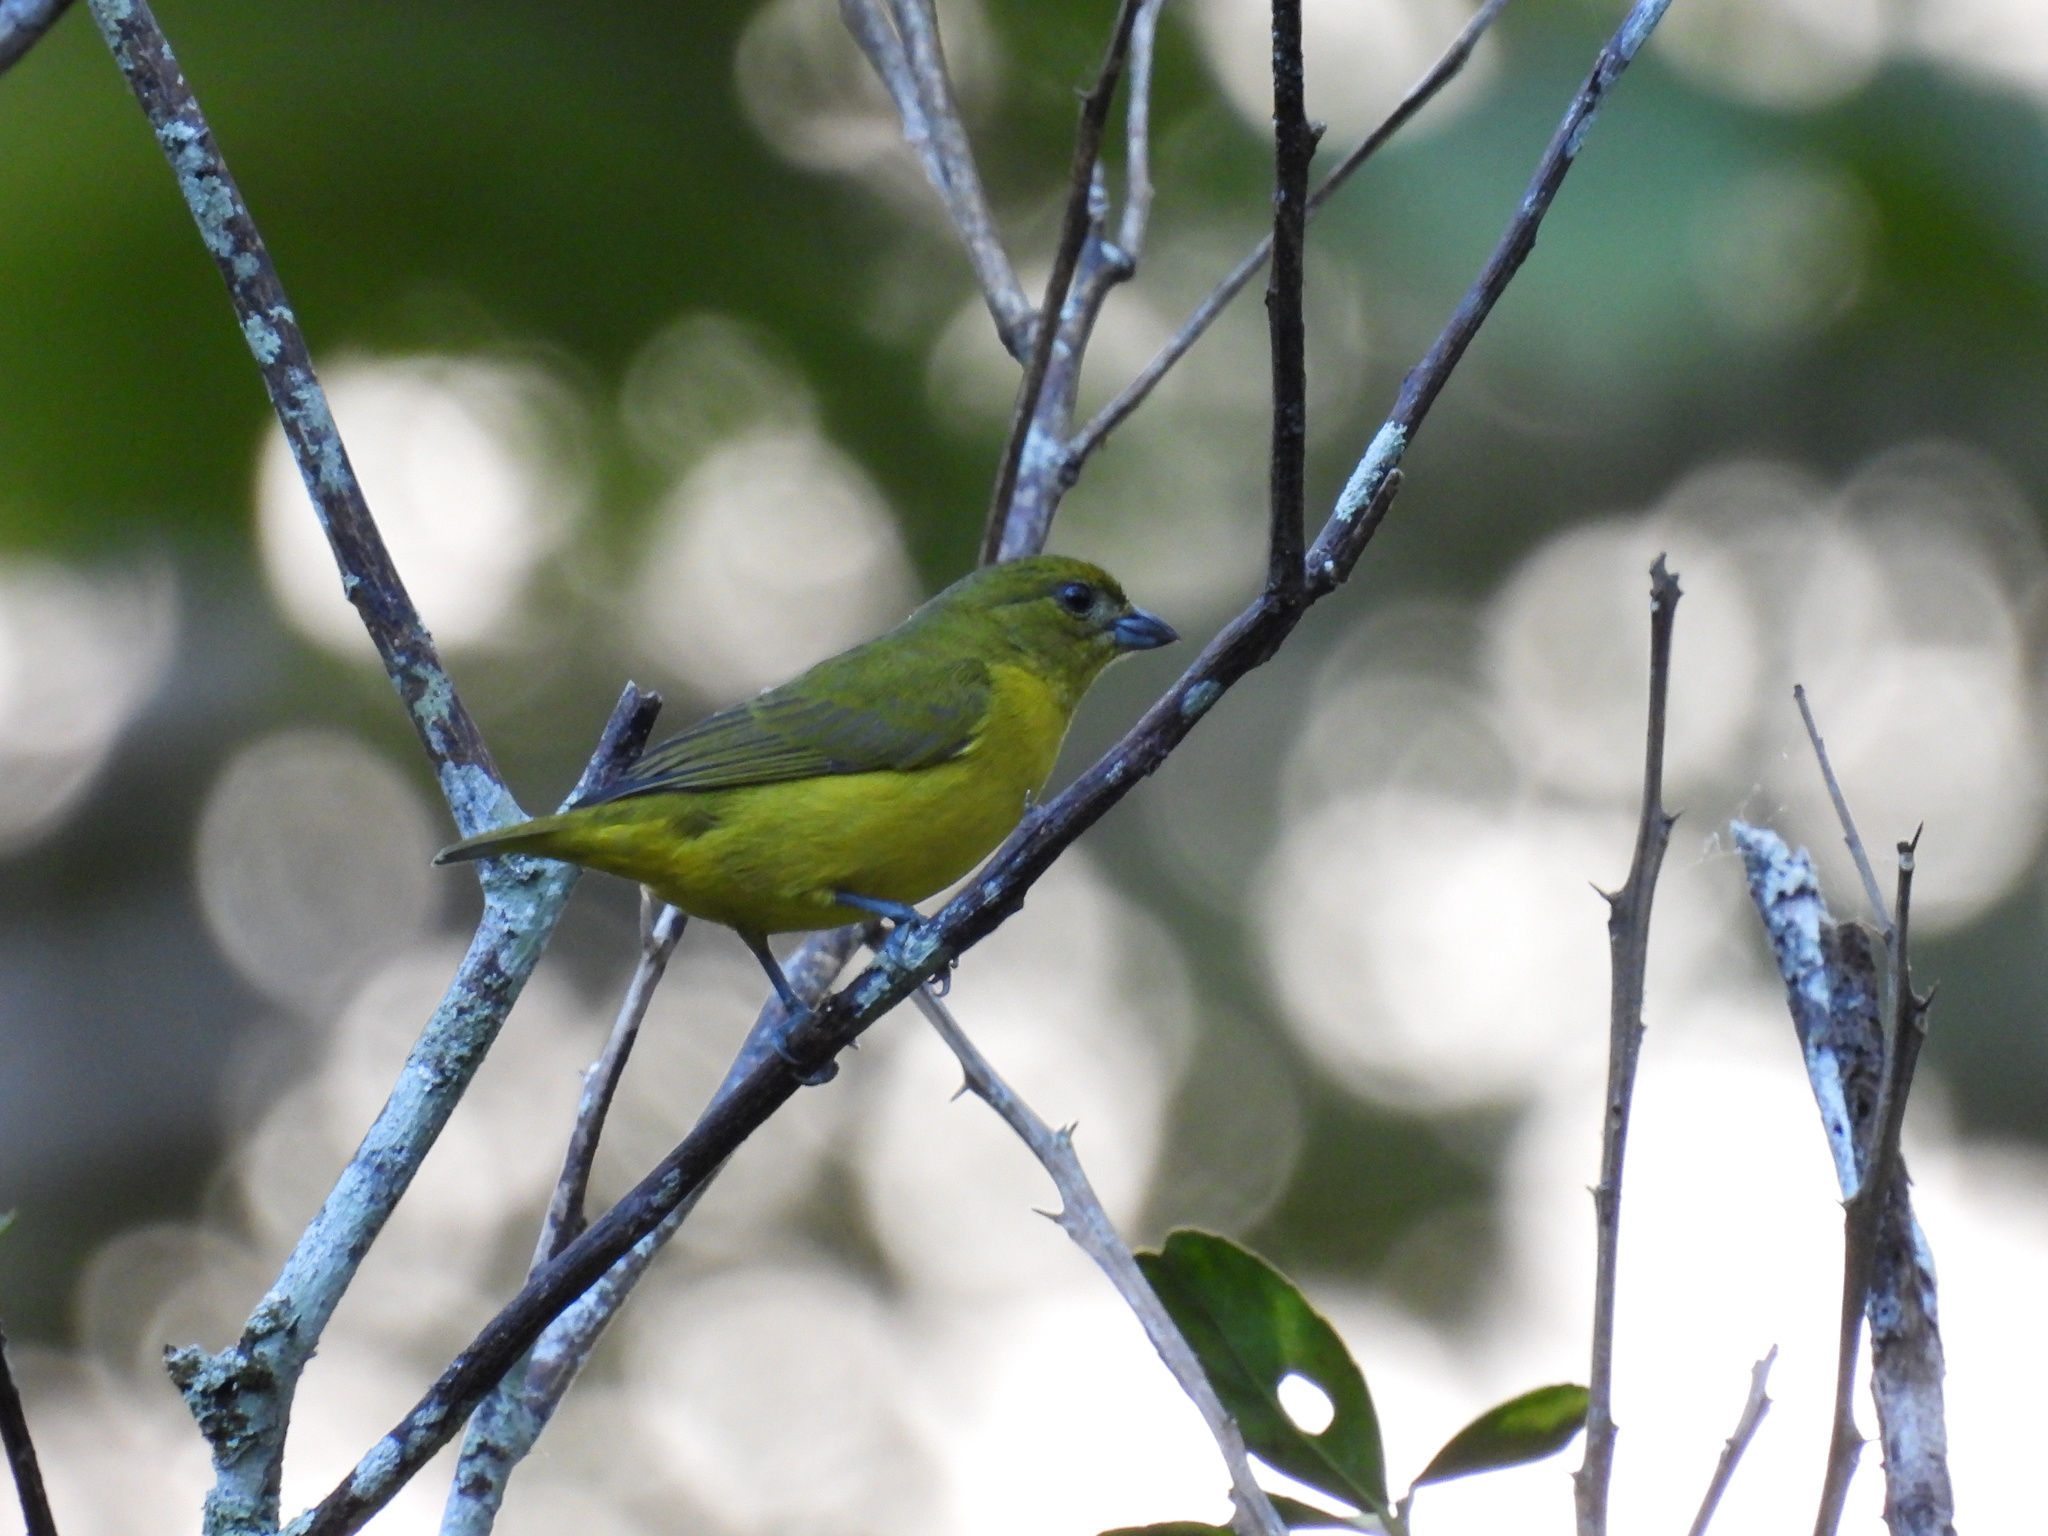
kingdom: Animalia
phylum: Chordata
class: Aves
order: Passeriformes
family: Fringillidae
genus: Euphonia
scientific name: Euphonia laniirostris
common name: Thick-billed euphonia
